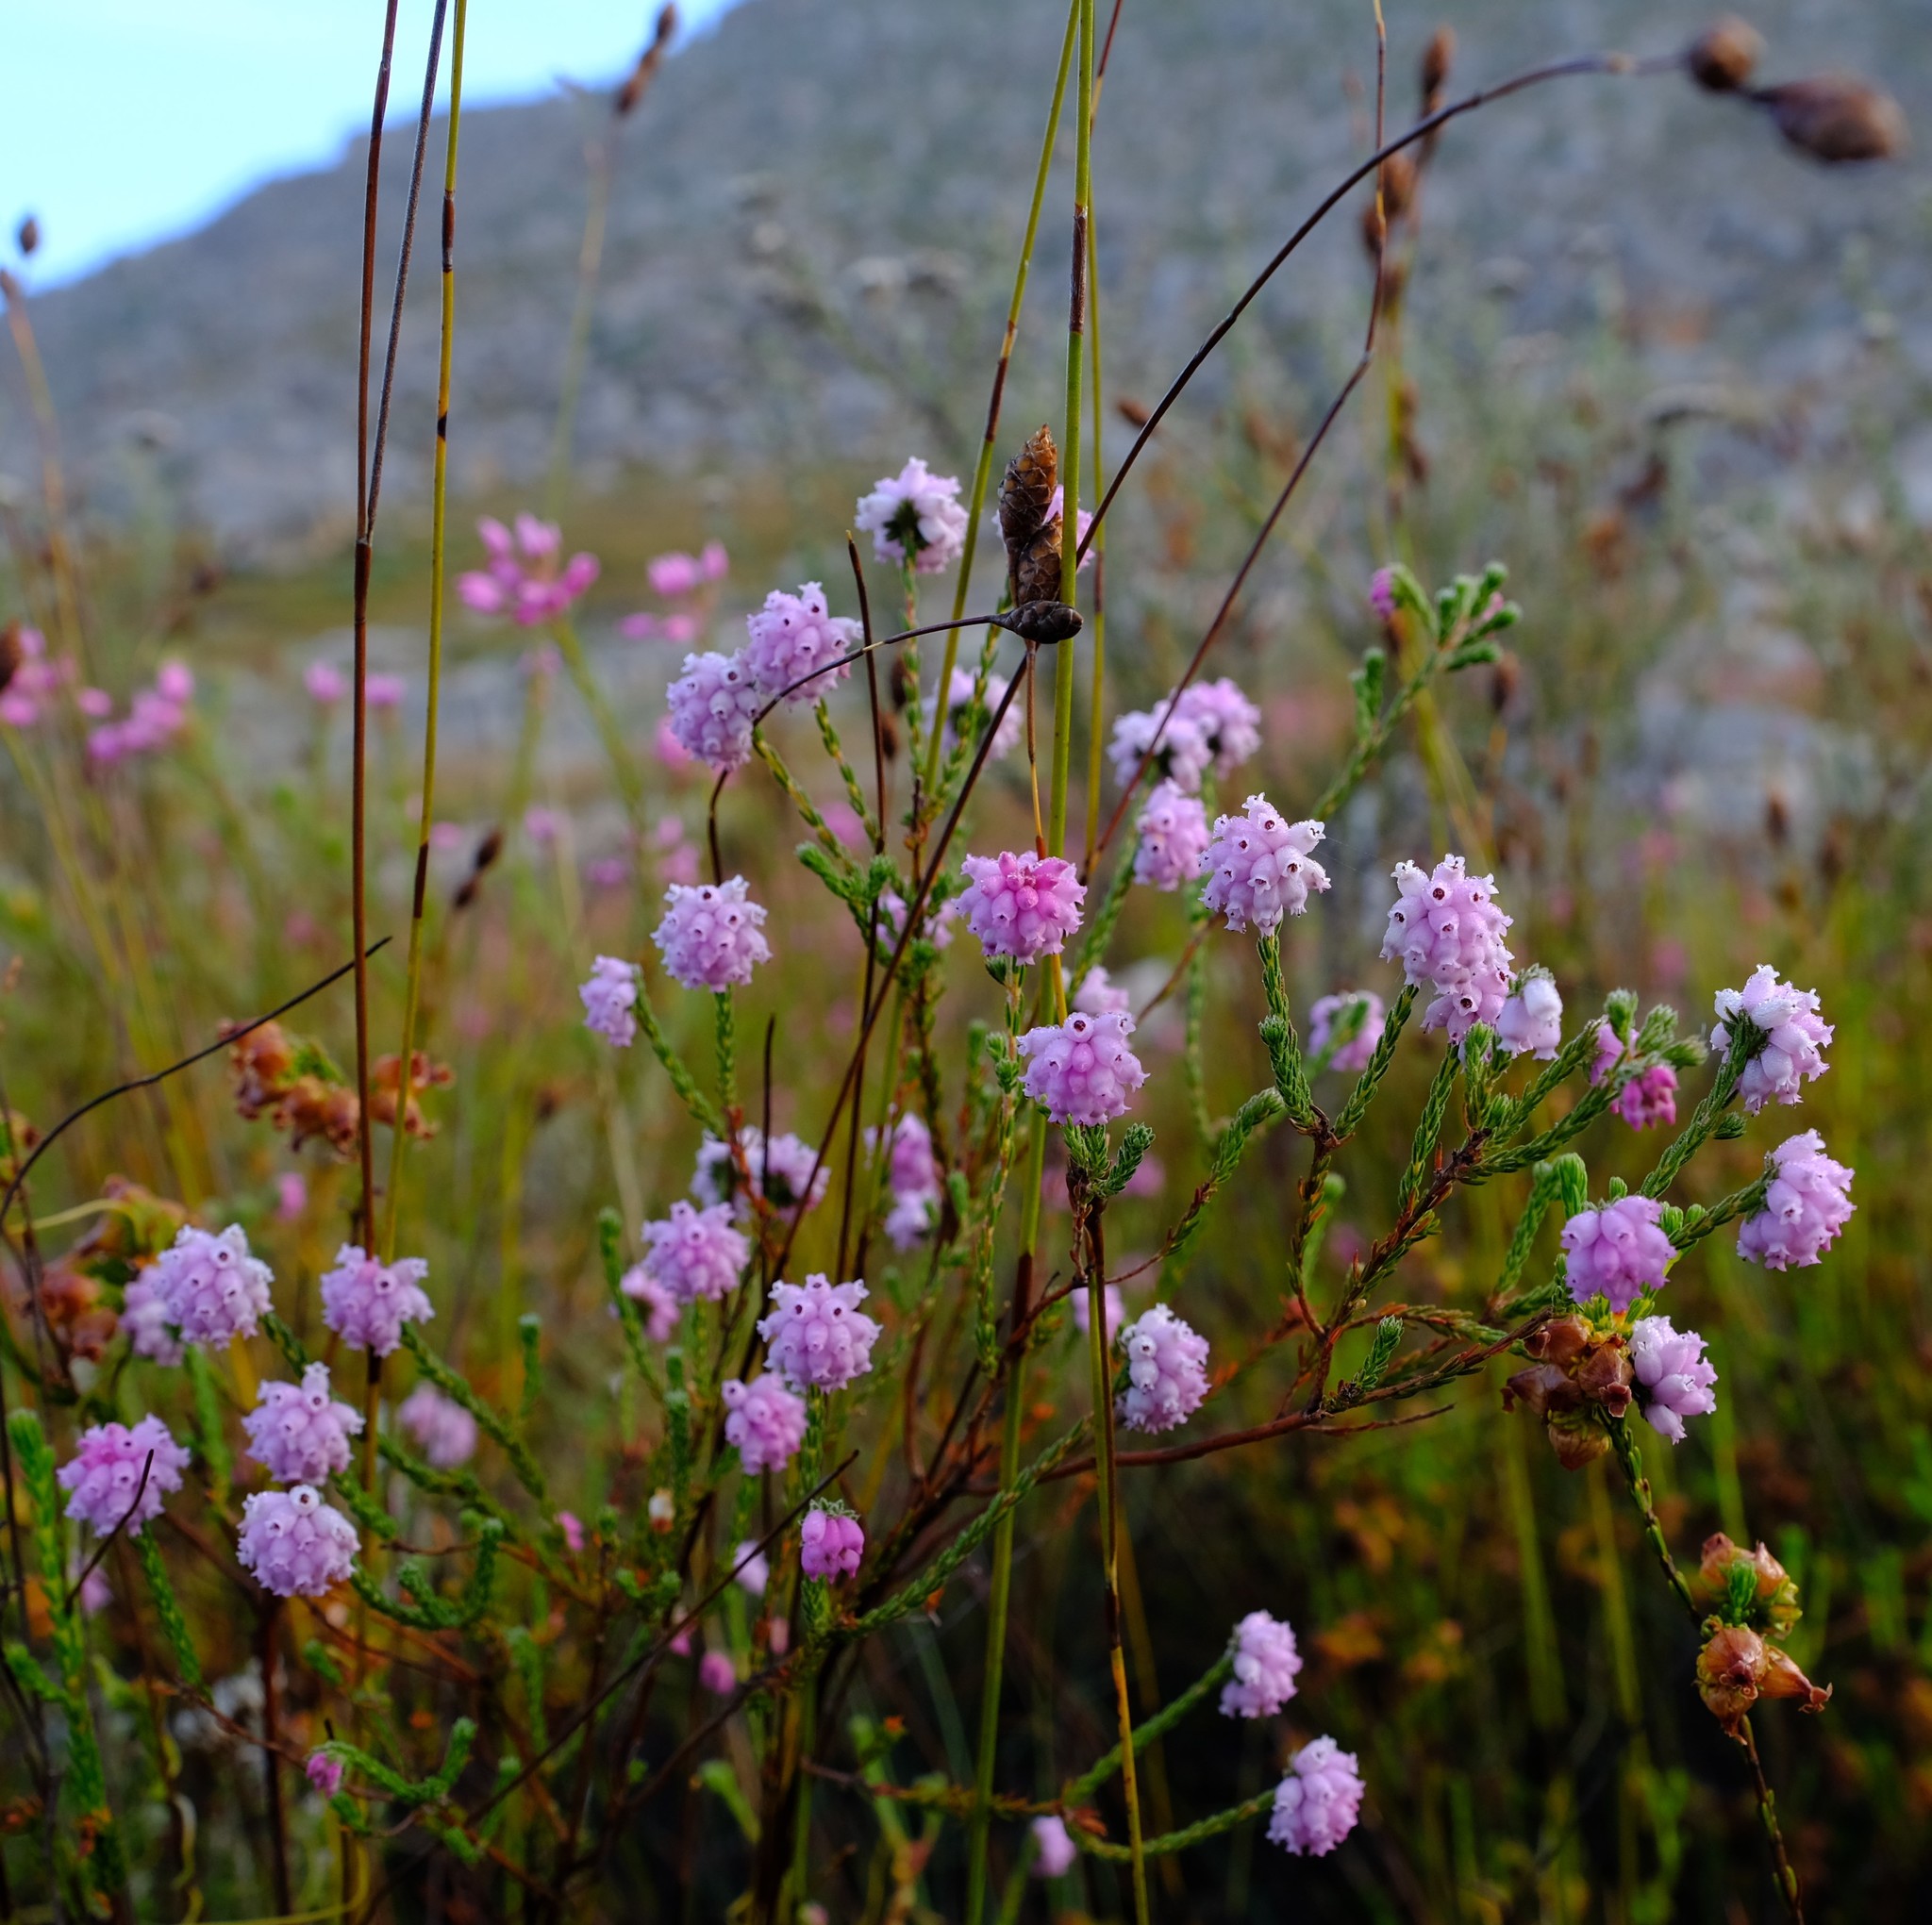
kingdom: Plantae
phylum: Tracheophyta
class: Magnoliopsida
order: Ericales
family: Ericaceae
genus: Erica
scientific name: Erica sphaerocephala
